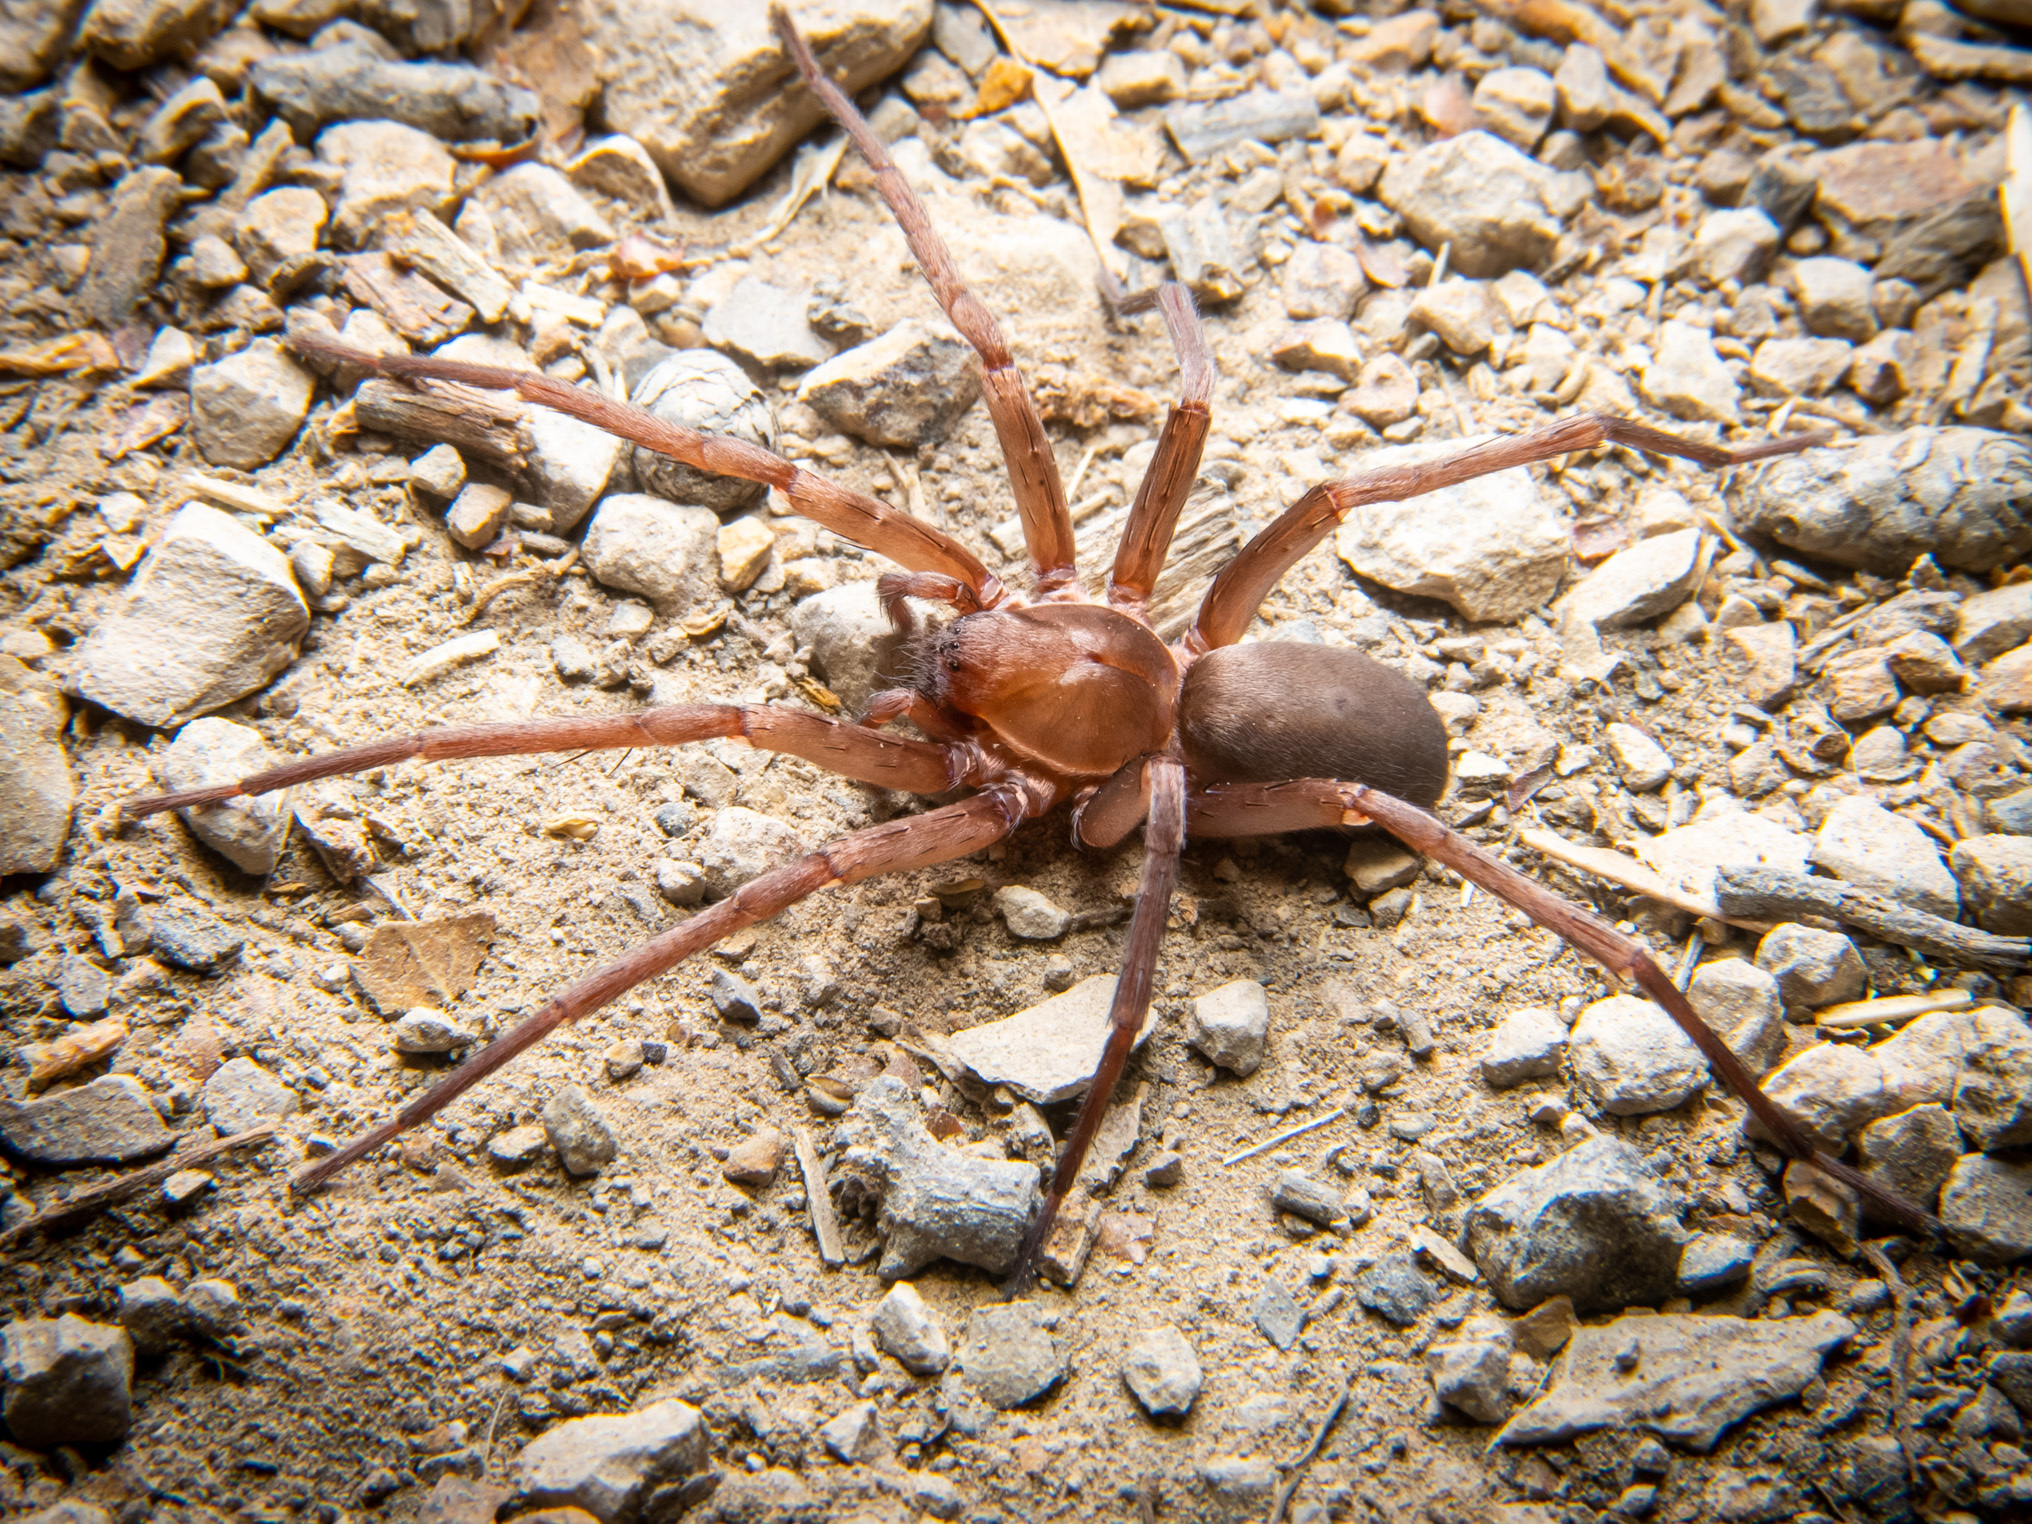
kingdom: Animalia
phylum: Arthropoda
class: Arachnida
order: Araneae
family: Zoropsidae
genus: Titiotus
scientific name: Titiotus
